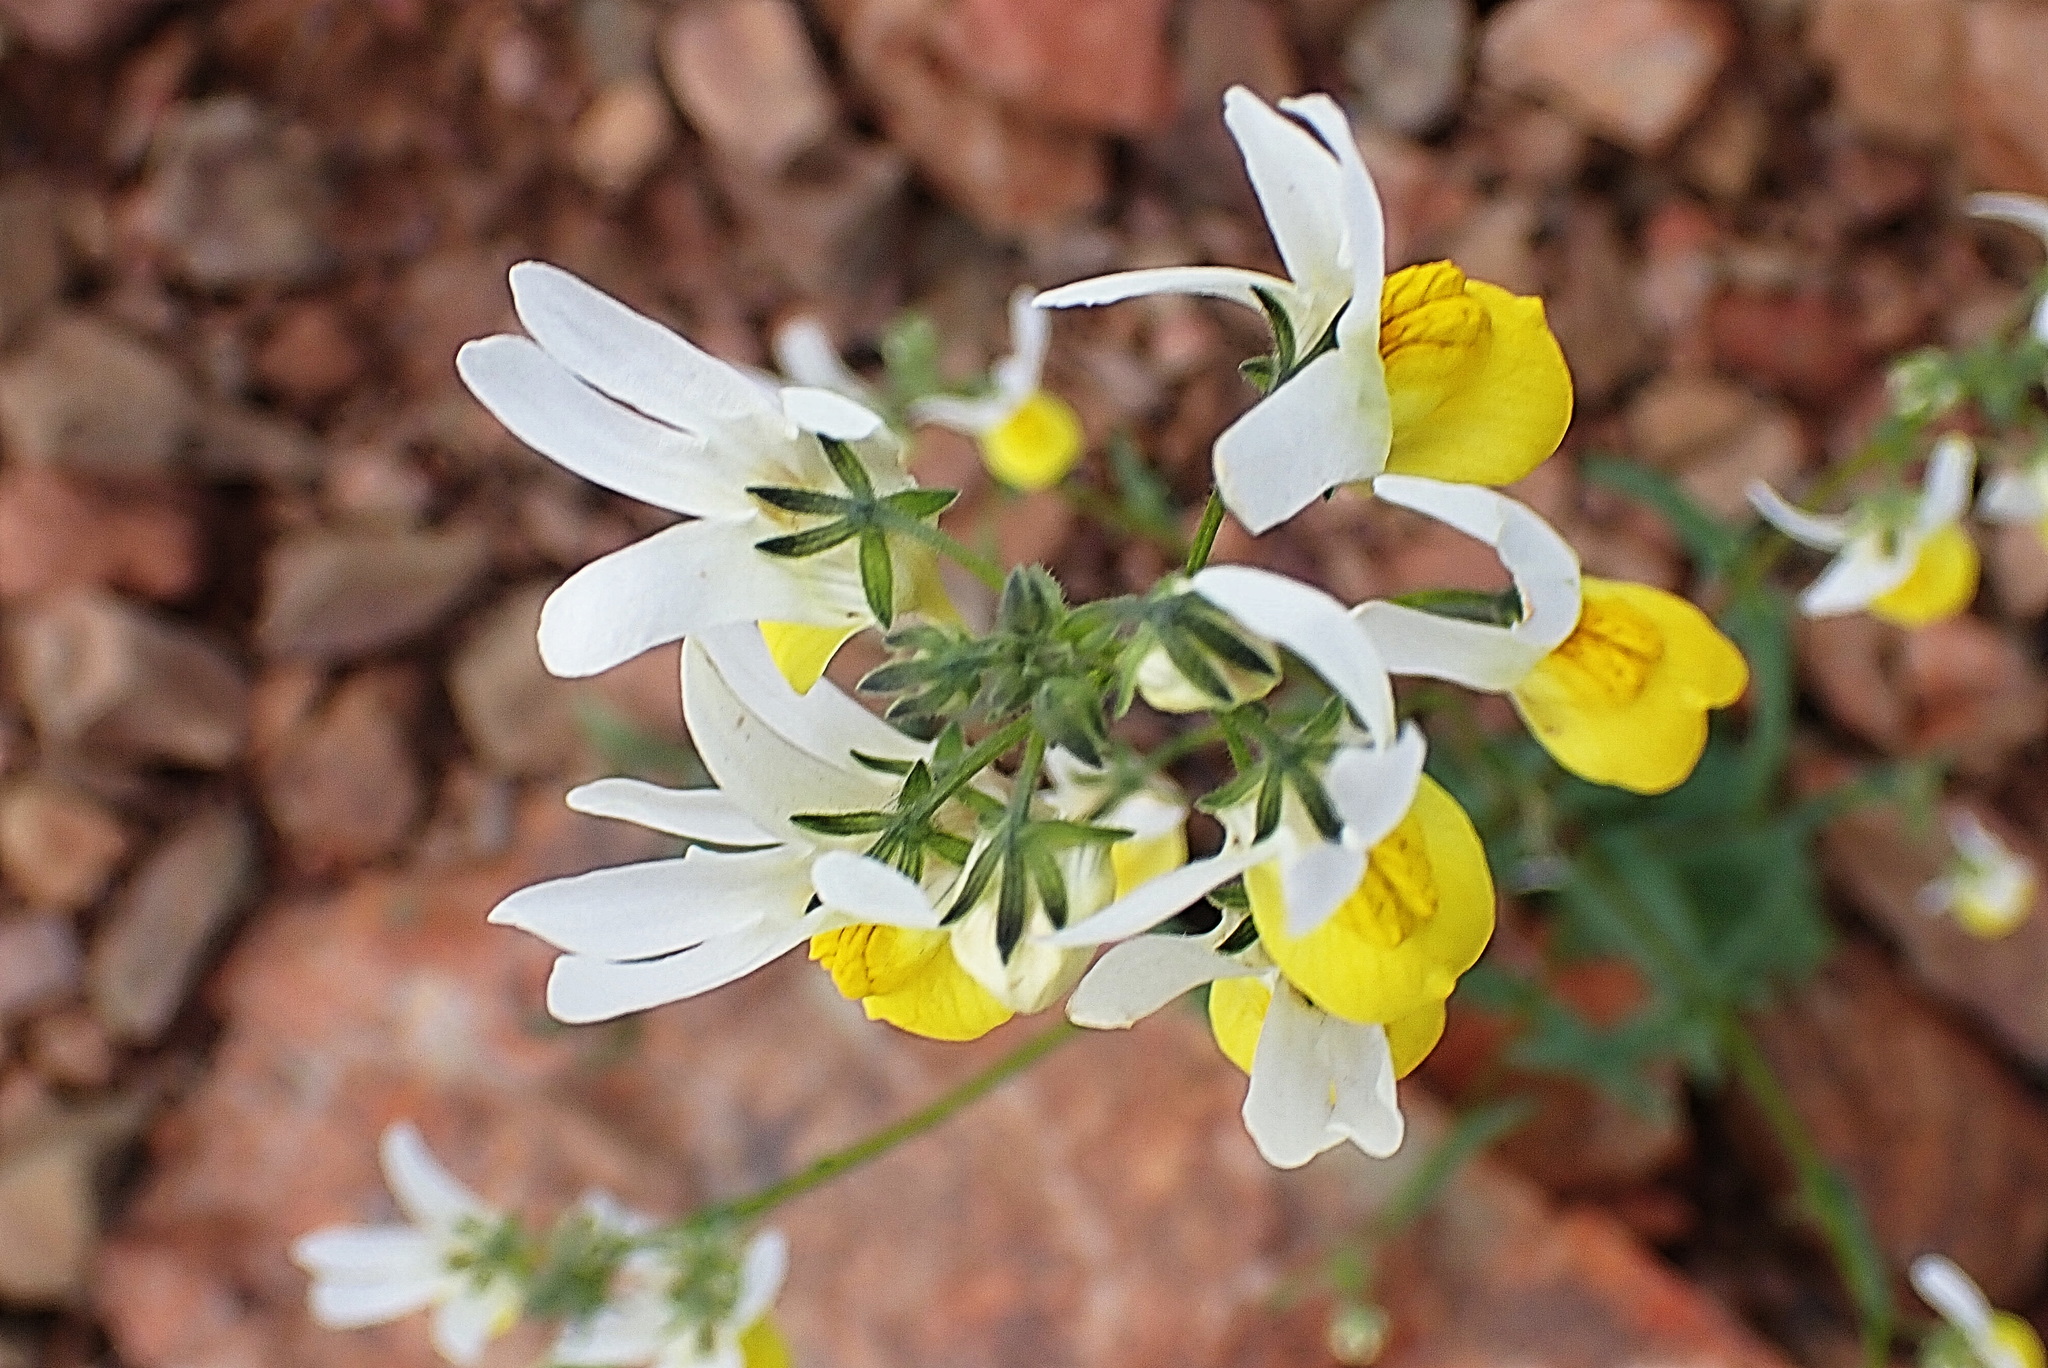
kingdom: Plantae
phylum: Tracheophyta
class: Magnoliopsida
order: Lamiales
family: Scrophulariaceae
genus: Nemesia
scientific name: Nemesia ligulata
